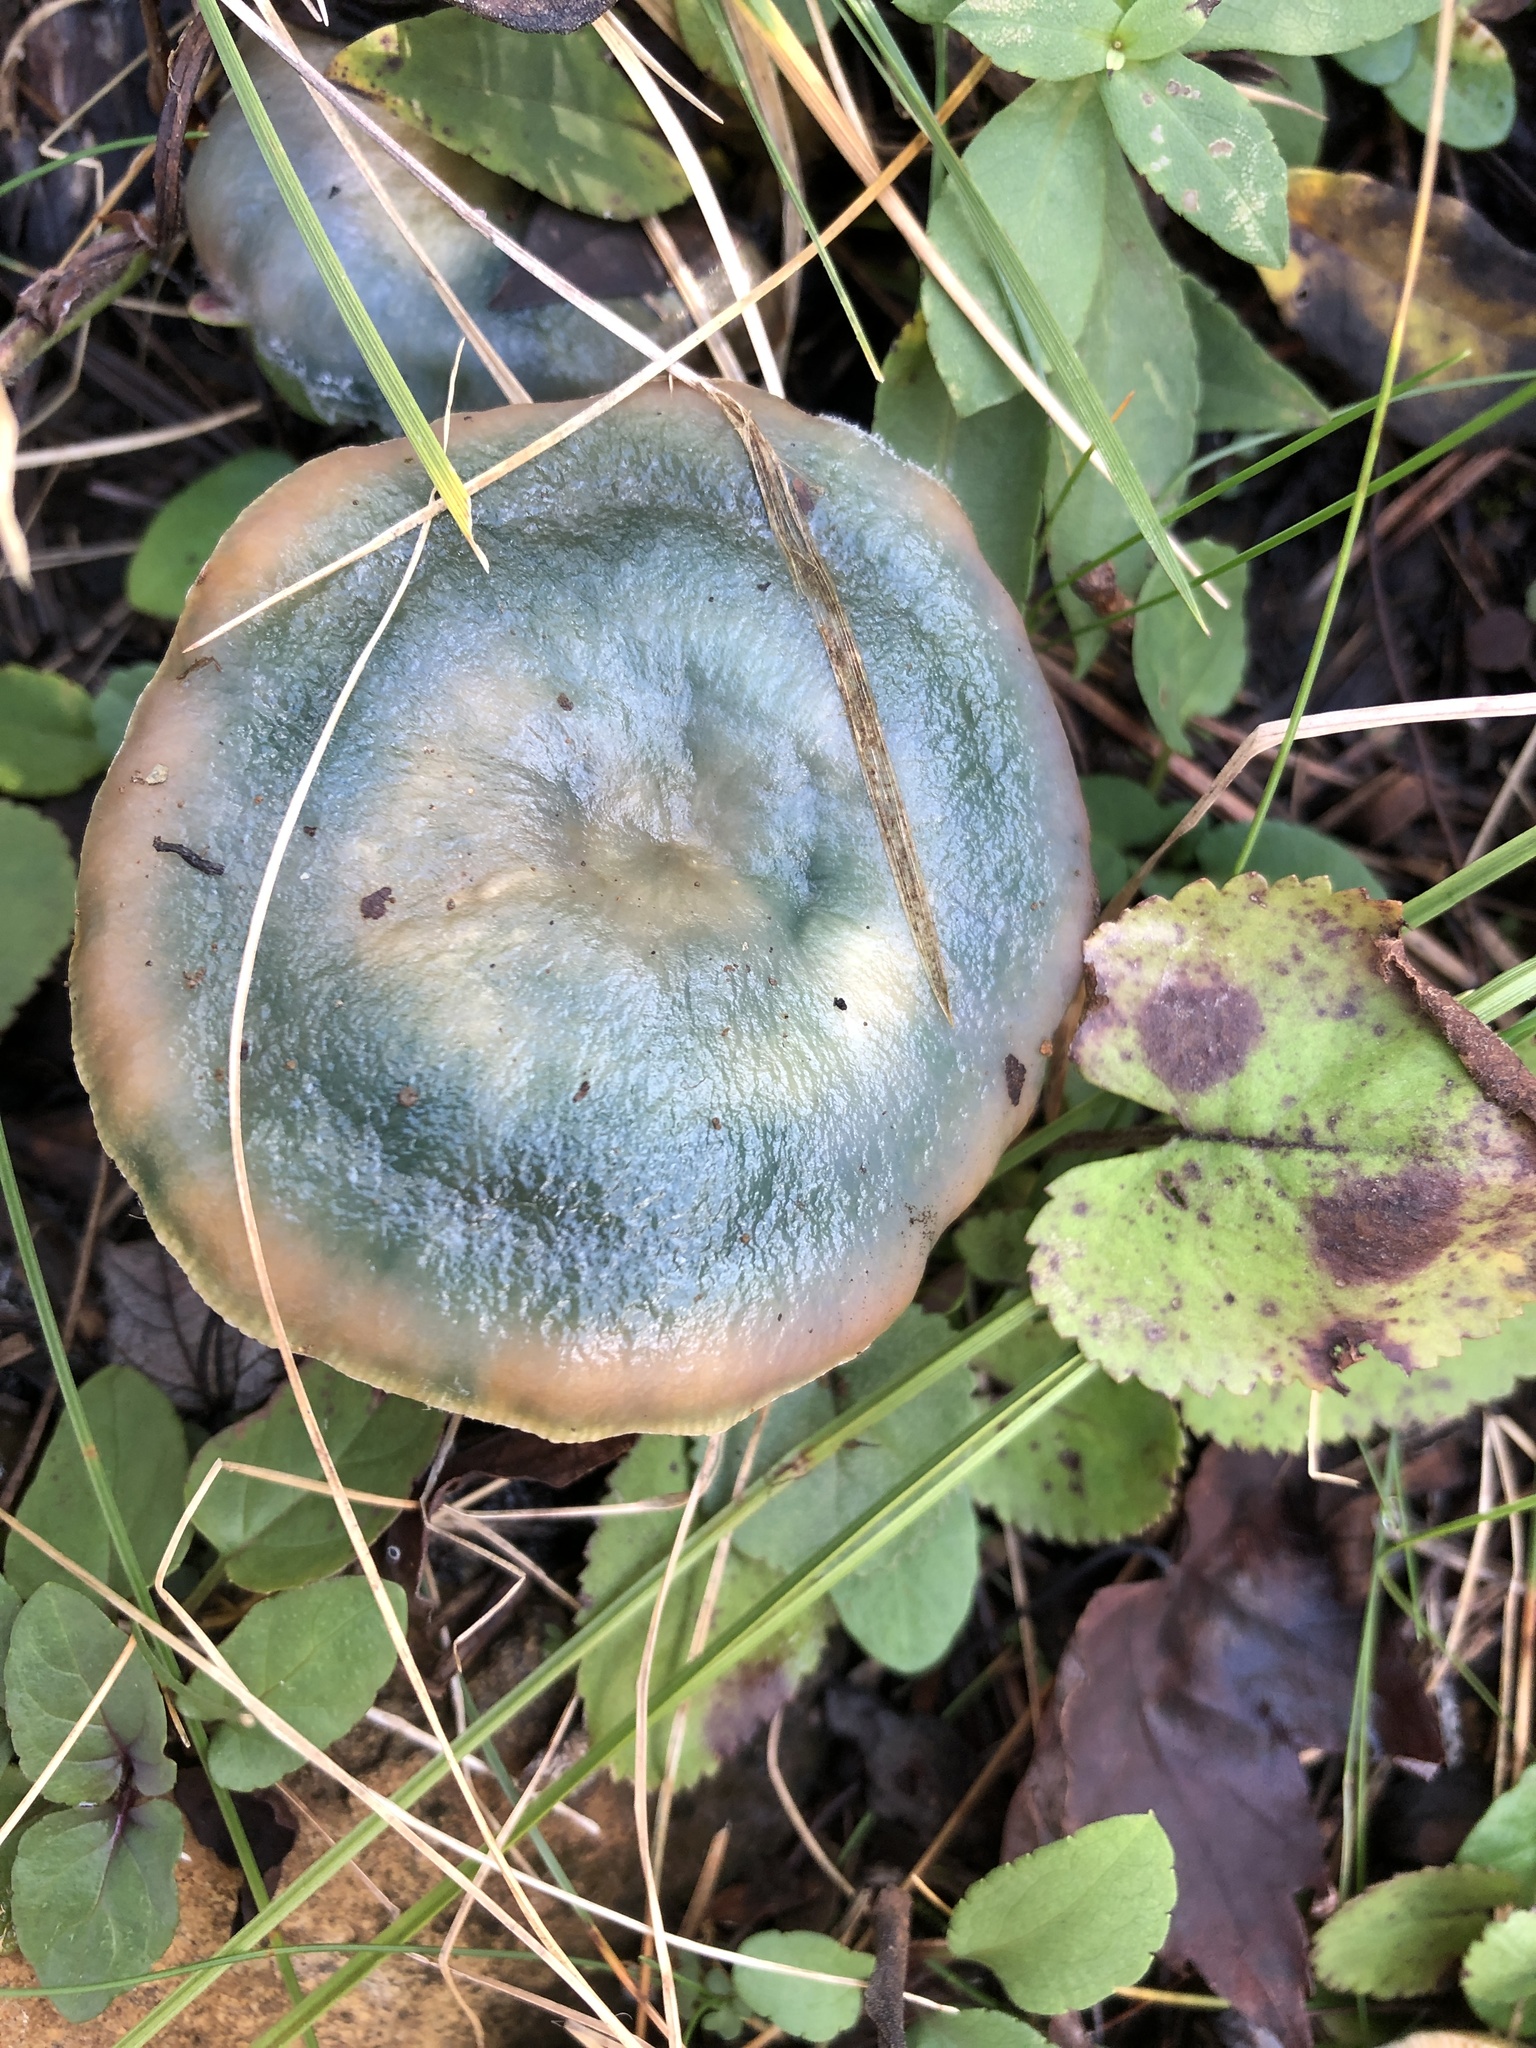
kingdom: Fungi
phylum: Basidiomycota
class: Agaricomycetes
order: Russulales
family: Russulaceae
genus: Lactarius
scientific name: Lactarius chelidonium
